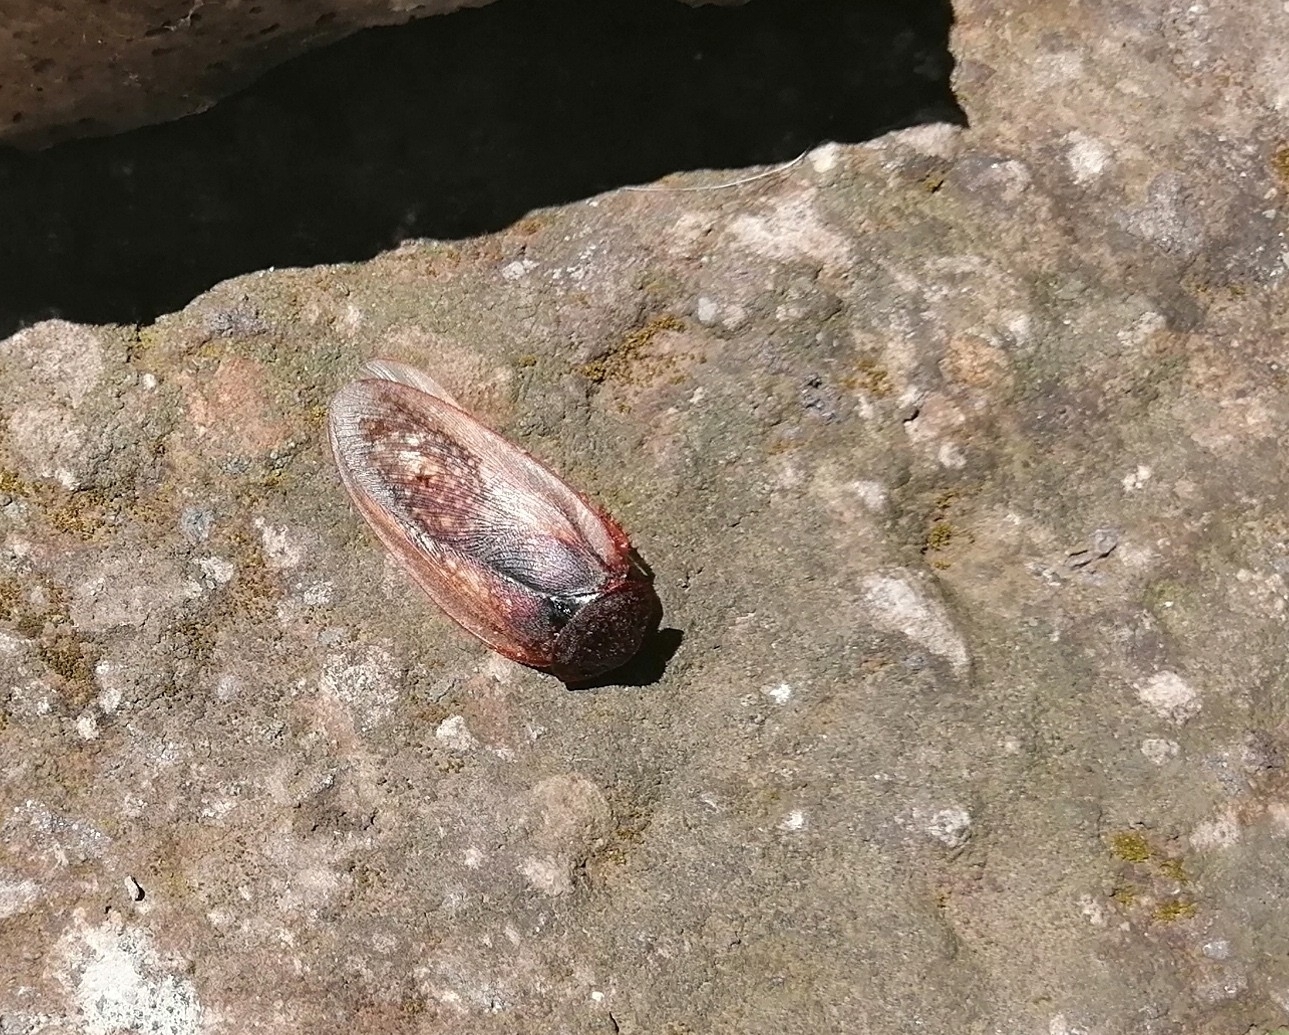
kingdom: Animalia
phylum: Arthropoda
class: Insecta
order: Blattodea
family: Corydiidae
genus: Homoeogamia
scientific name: Homoeogamia mexicana
